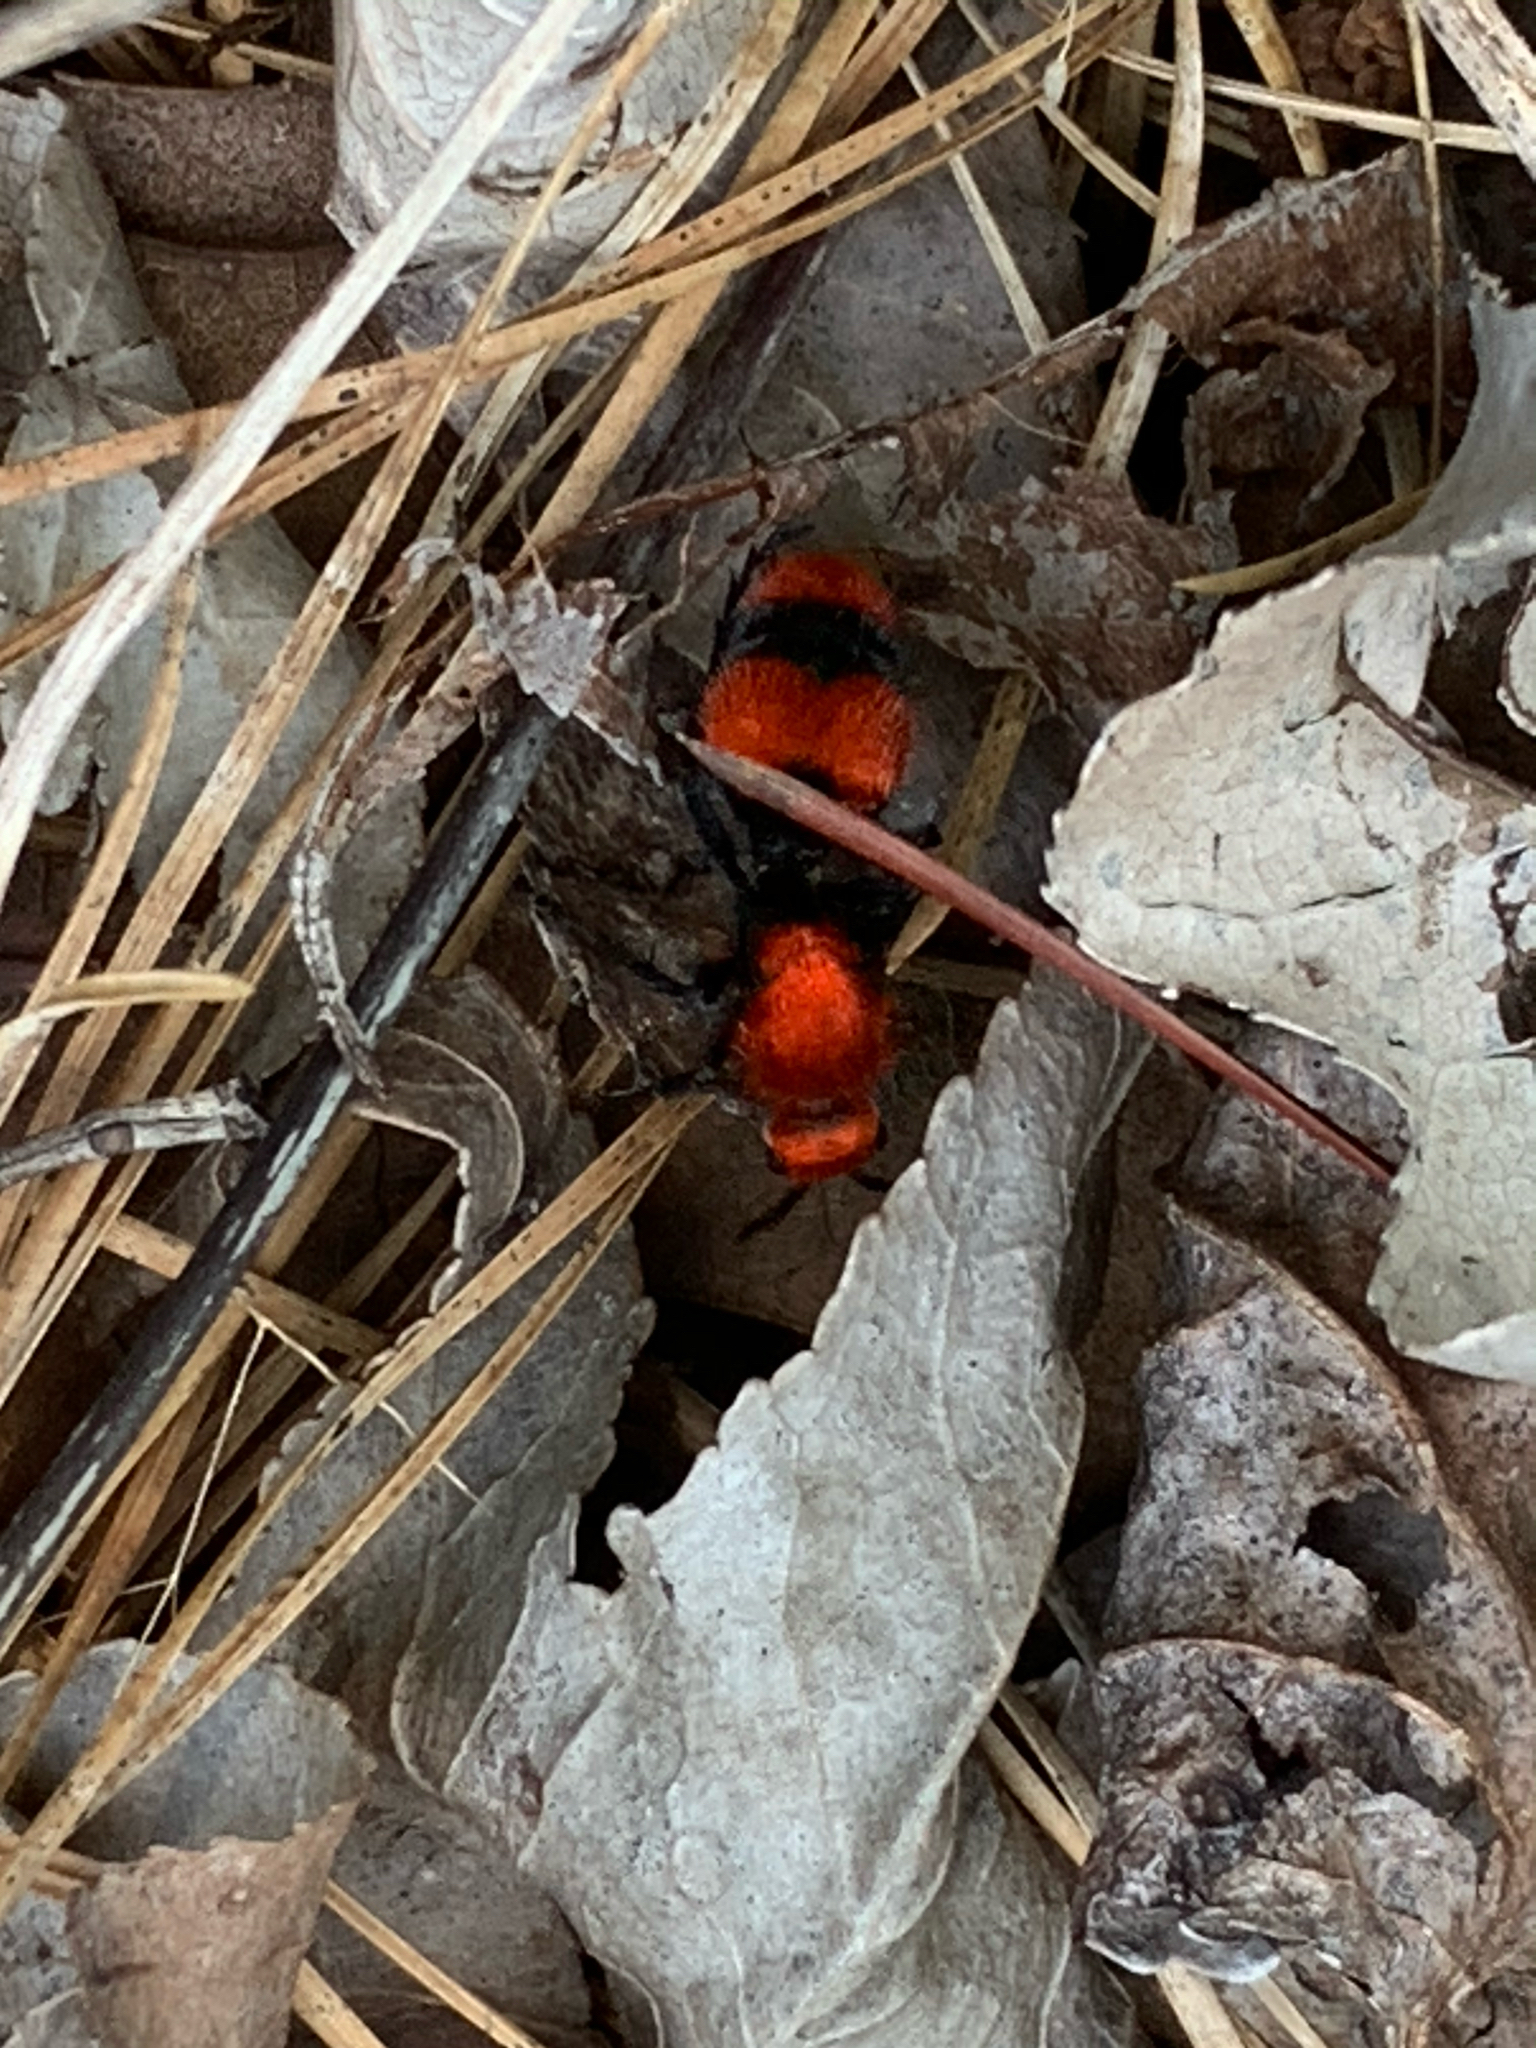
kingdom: Animalia
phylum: Arthropoda
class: Insecta
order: Hymenoptera
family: Mutillidae
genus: Dasymutilla
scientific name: Dasymutilla occidentalis
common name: Common eastern velvet ant
